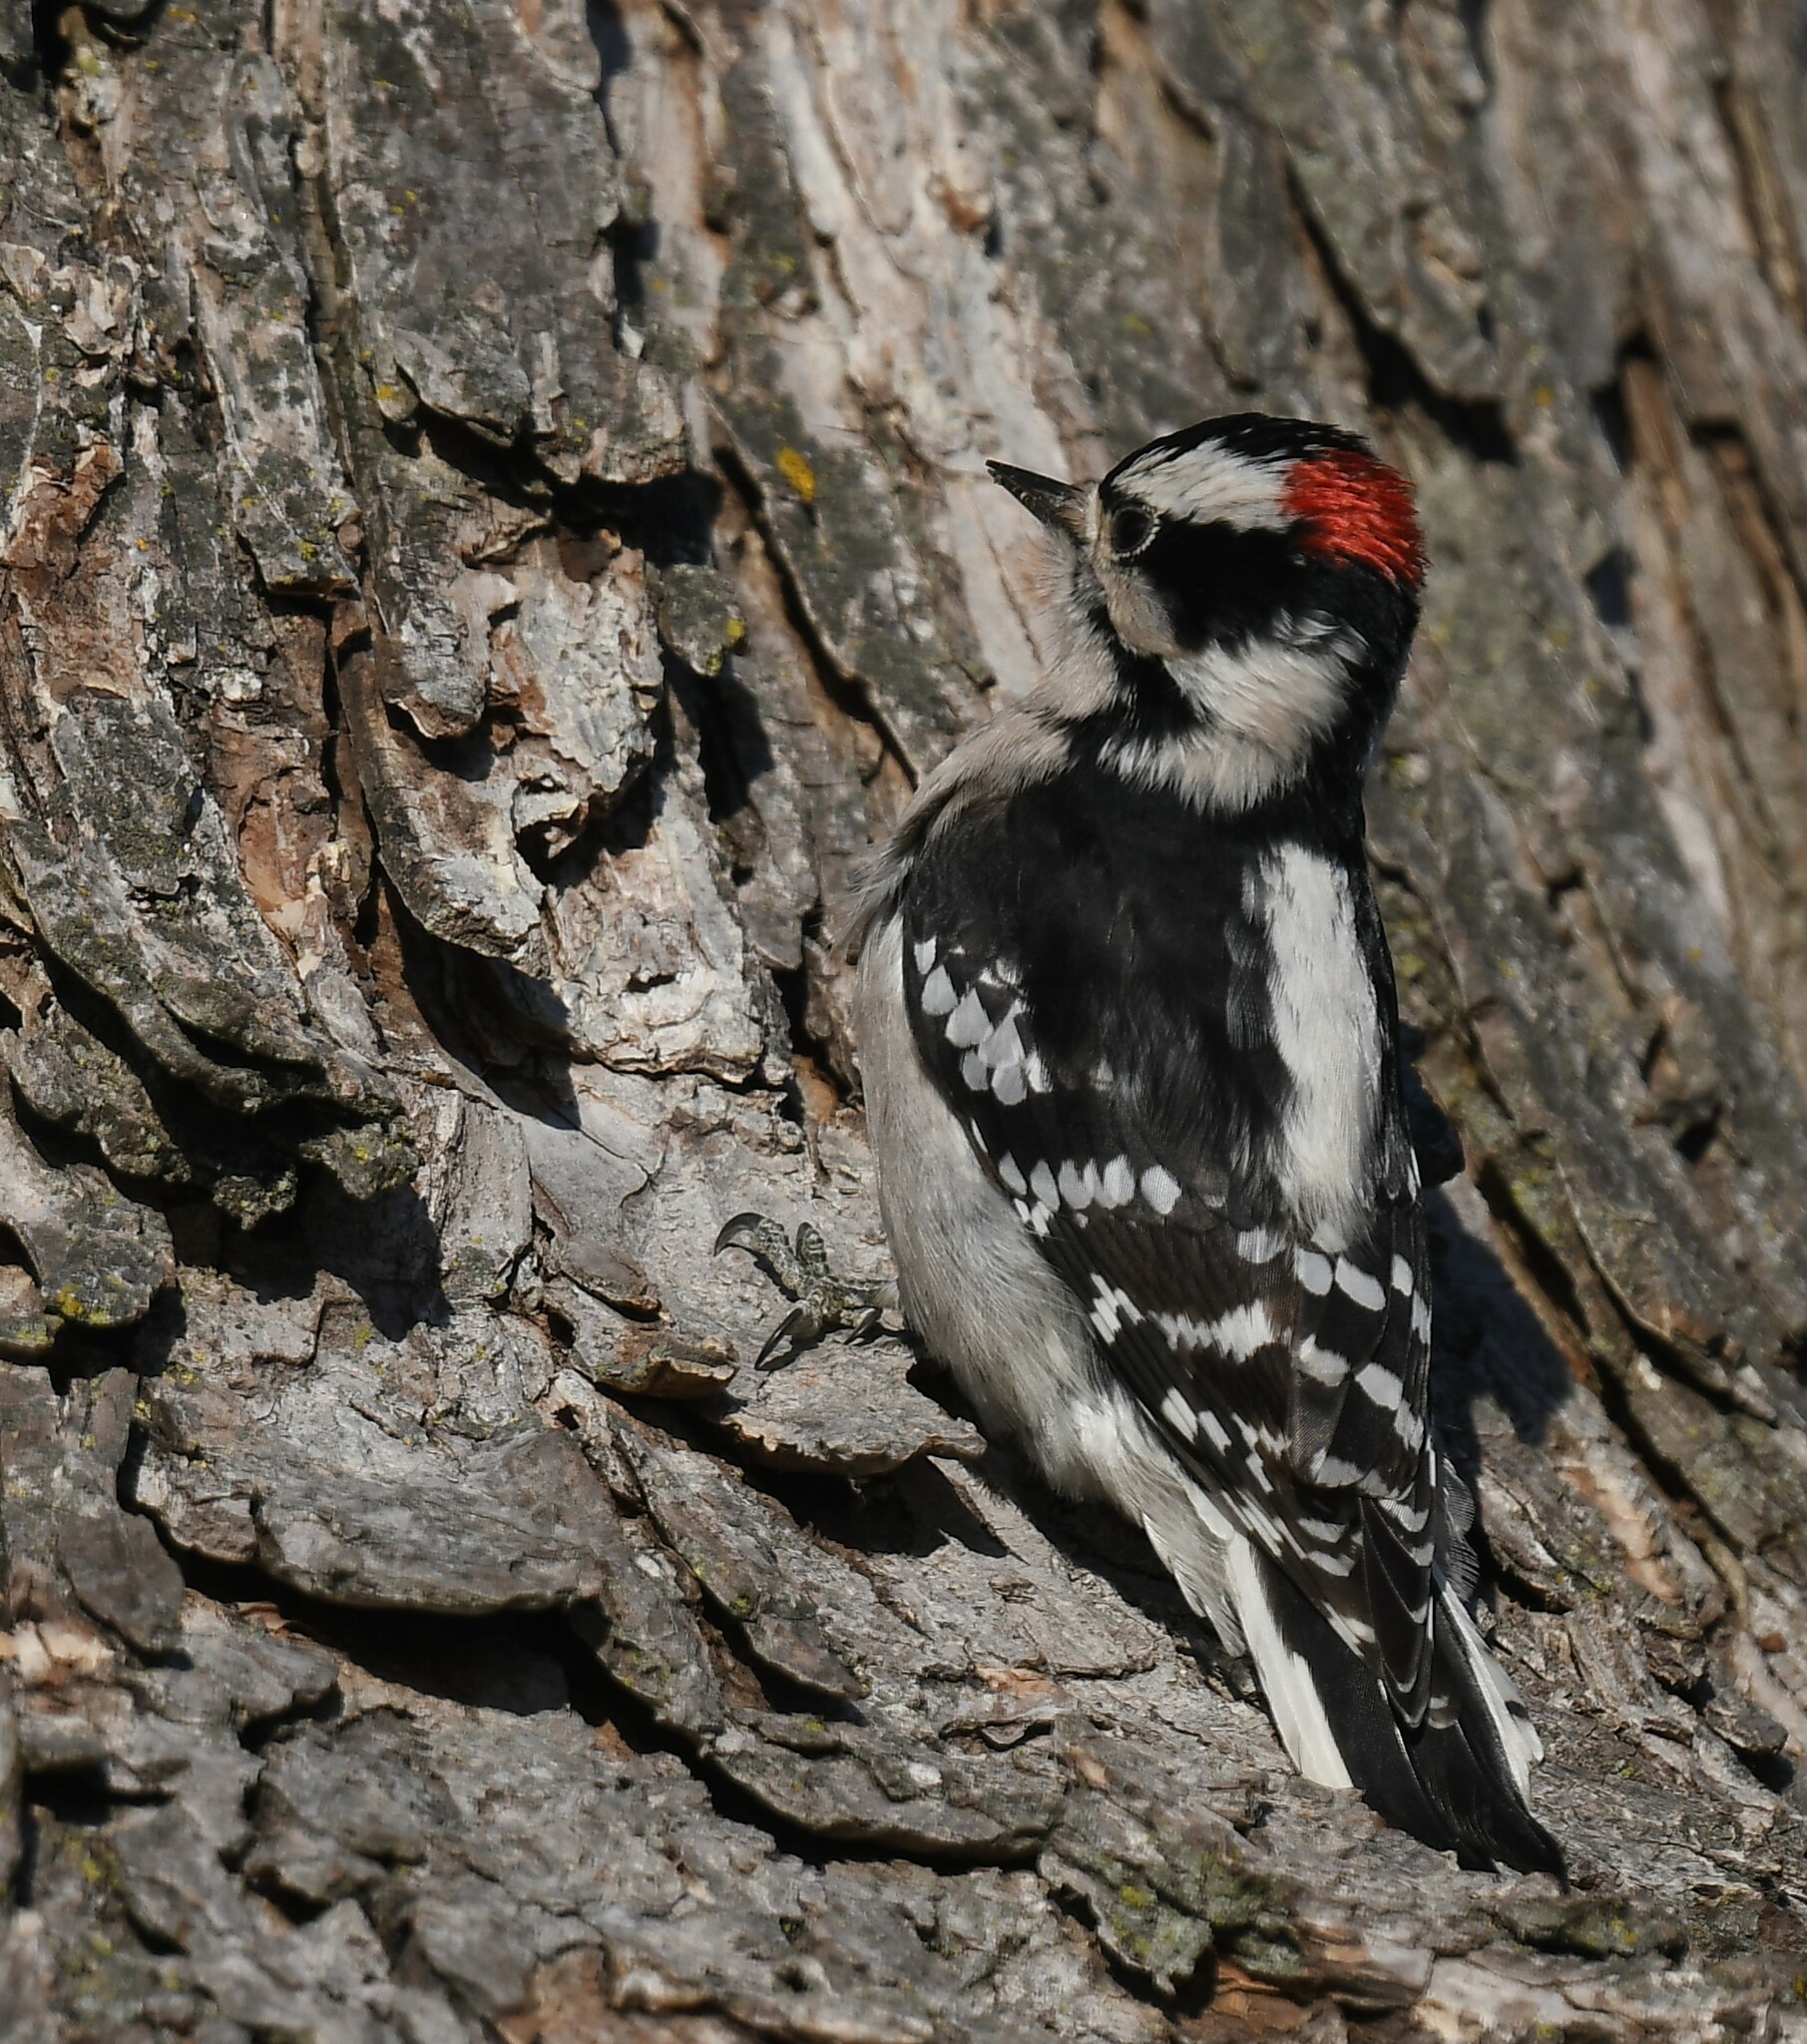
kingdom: Animalia
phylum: Chordata
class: Aves
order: Piciformes
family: Picidae
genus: Dryobates
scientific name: Dryobates pubescens
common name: Downy woodpecker
